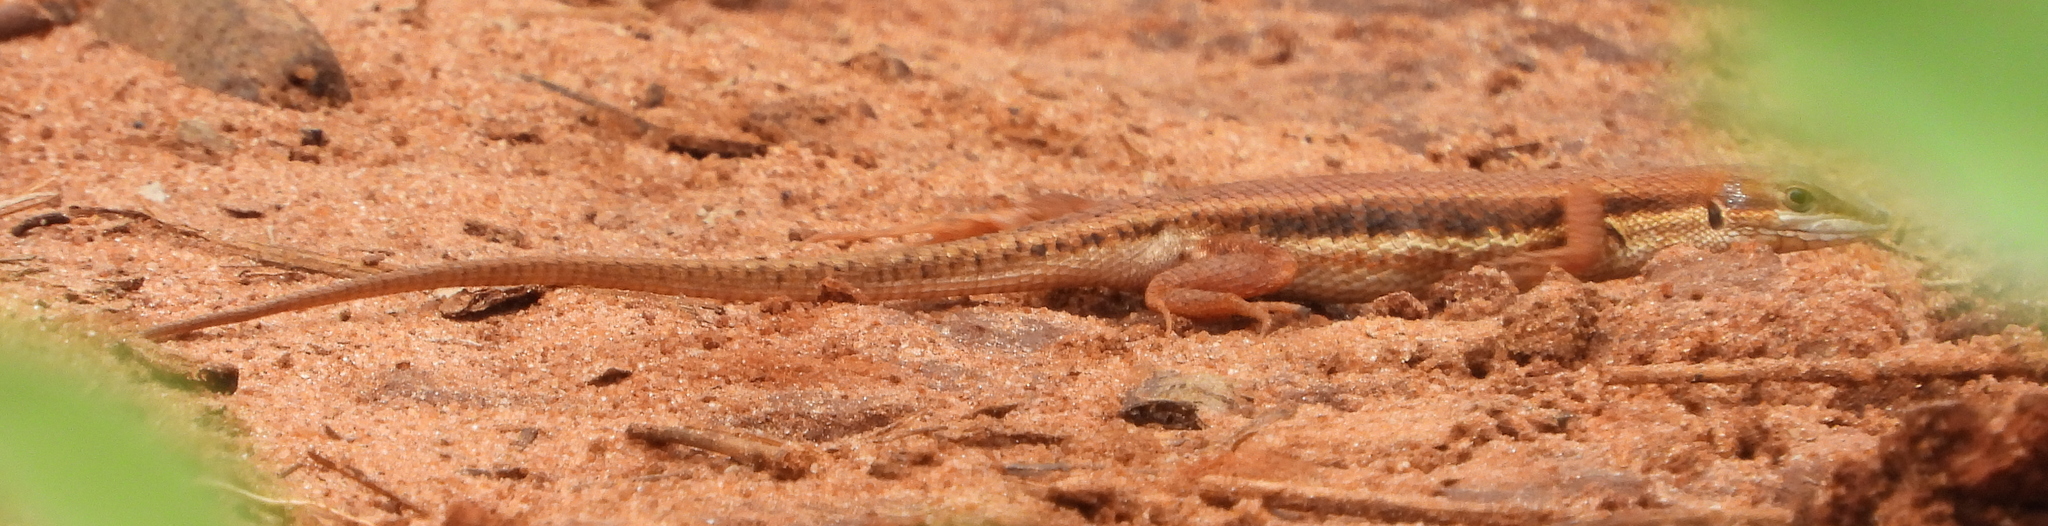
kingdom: Animalia
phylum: Chordata
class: Squamata
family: Lacertidae
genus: Ichnotropis
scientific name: Ichnotropis capensis
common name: Cape rough-scaled lizard
